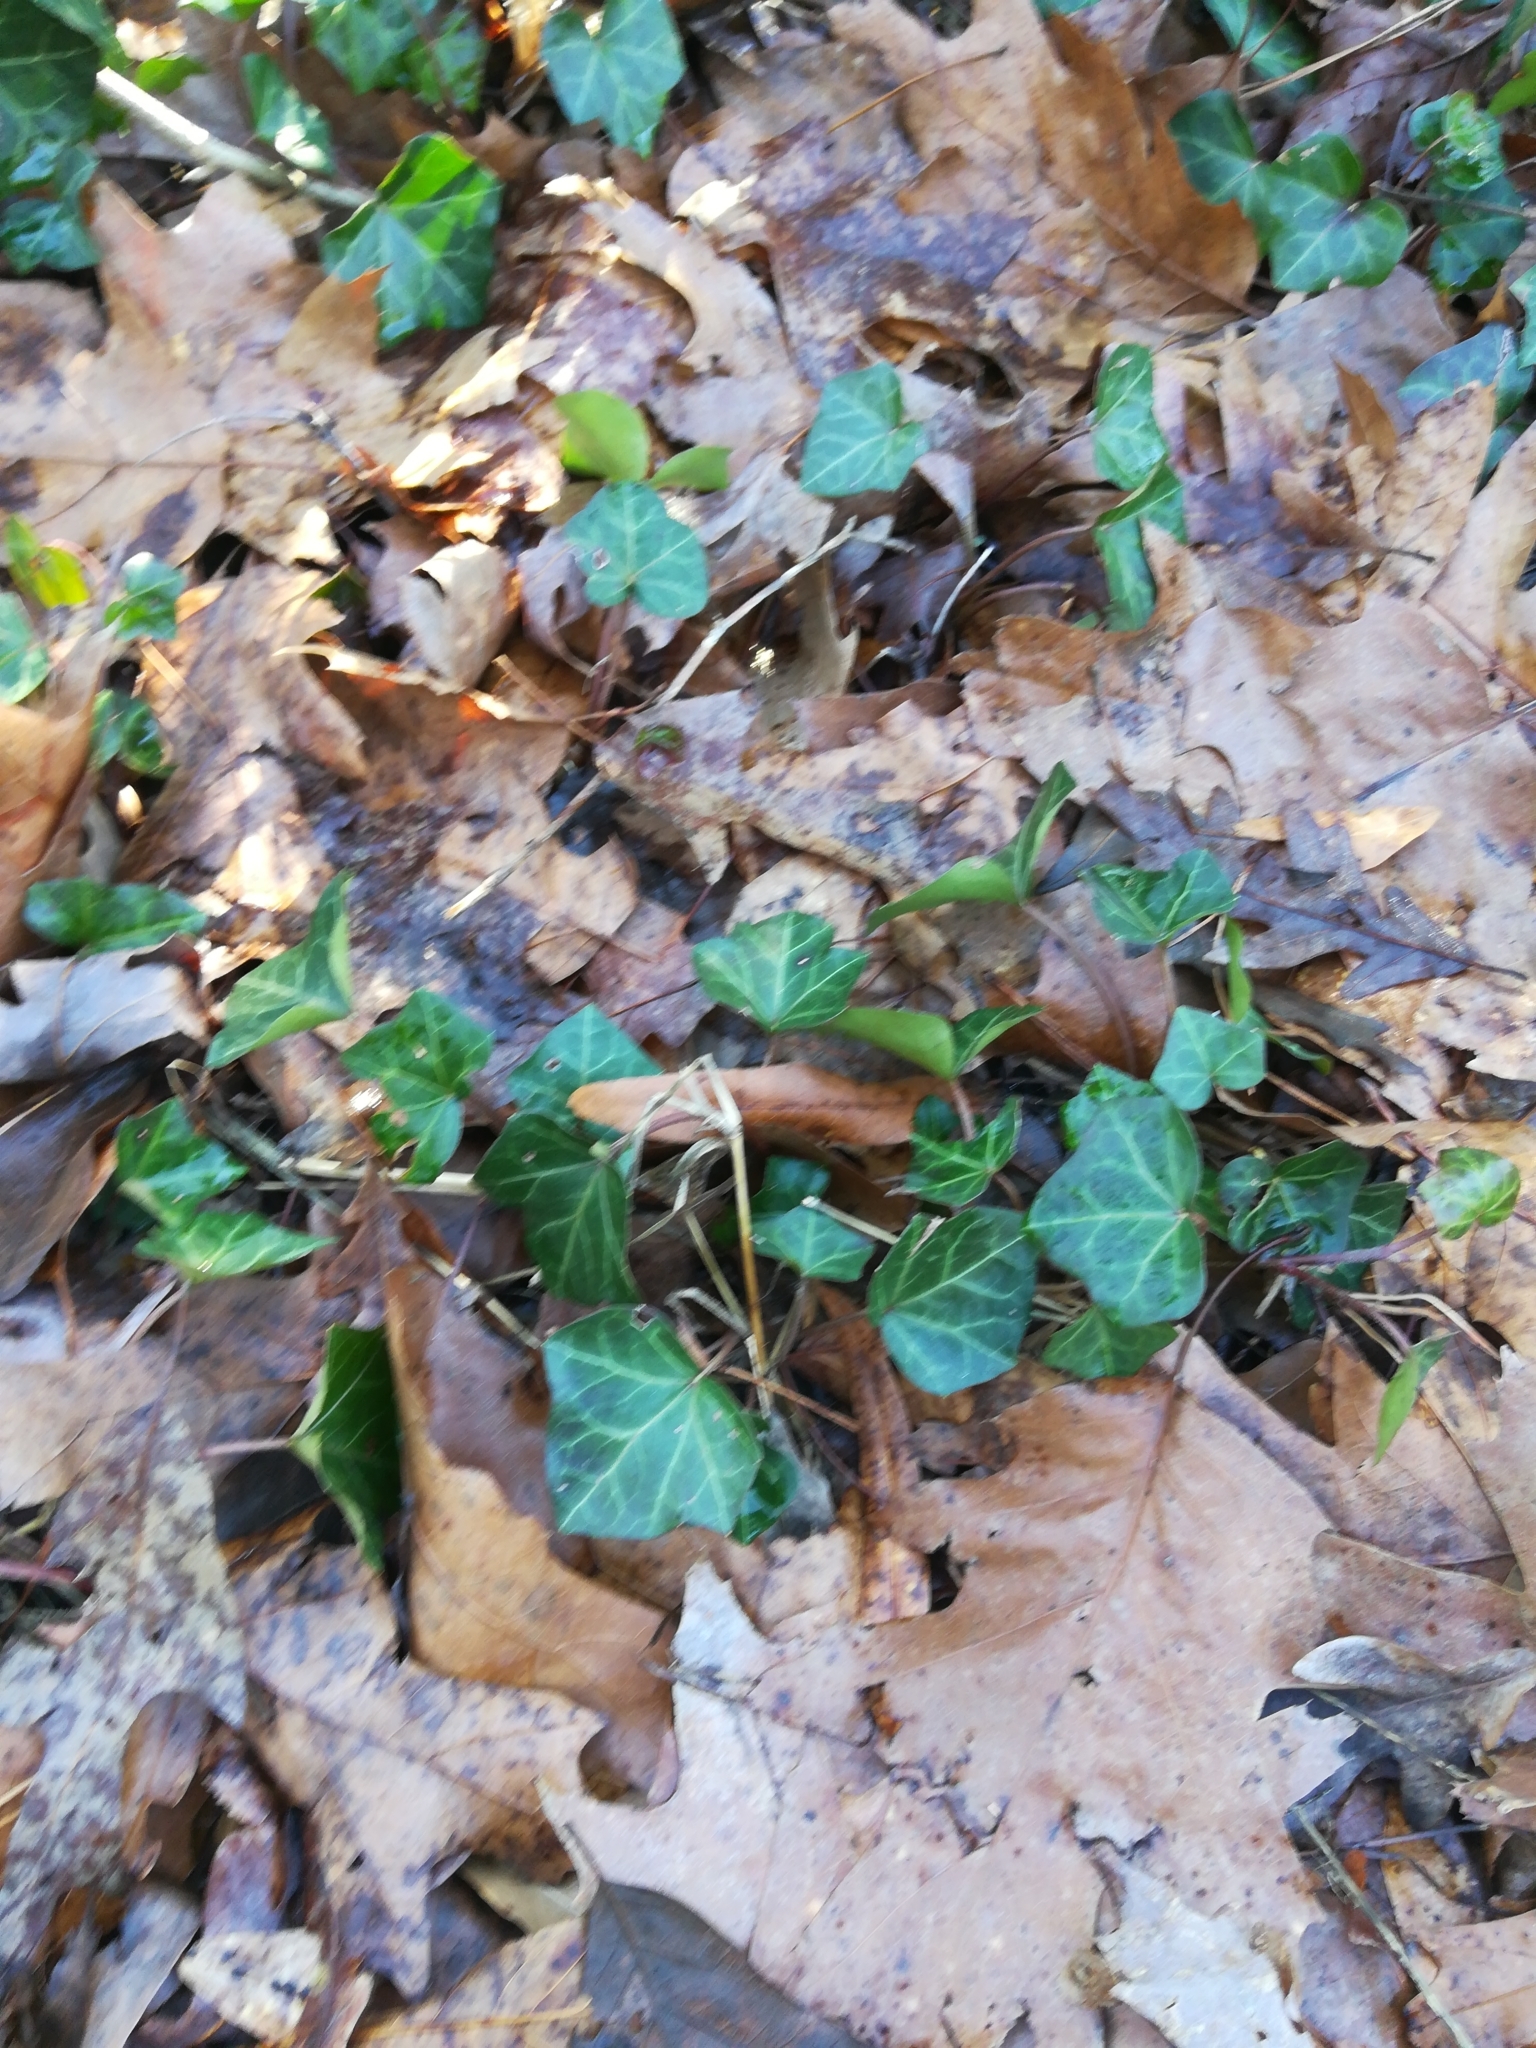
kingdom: Plantae
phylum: Tracheophyta
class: Magnoliopsida
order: Apiales
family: Araliaceae
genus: Hedera
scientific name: Hedera helix
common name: Ivy
